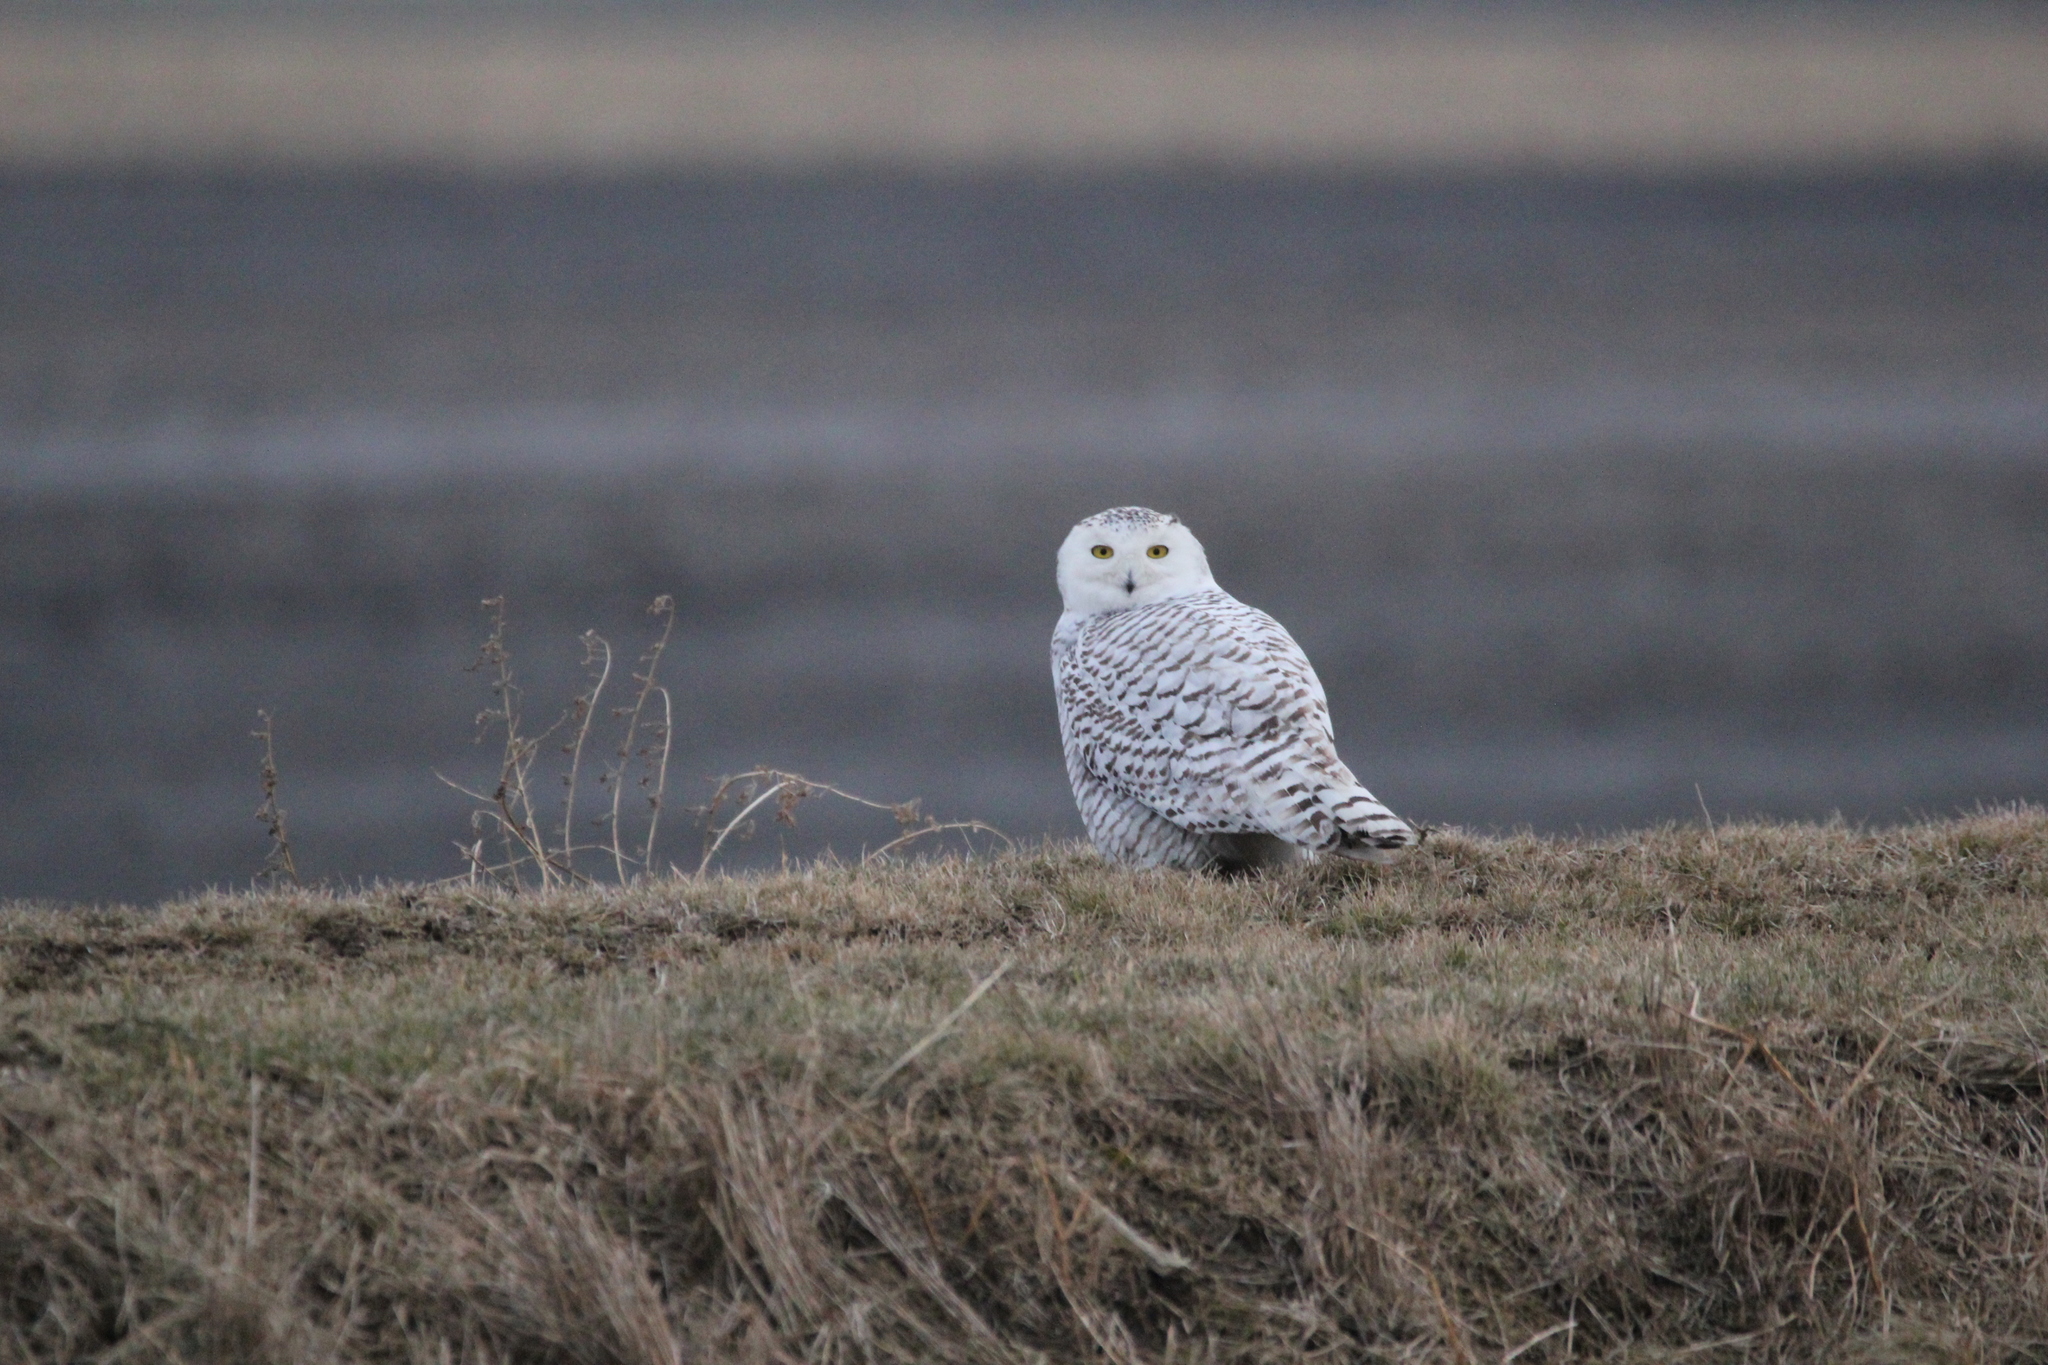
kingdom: Animalia
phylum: Chordata
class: Aves
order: Strigiformes
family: Strigidae
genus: Bubo
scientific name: Bubo scandiacus
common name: Snowy owl
